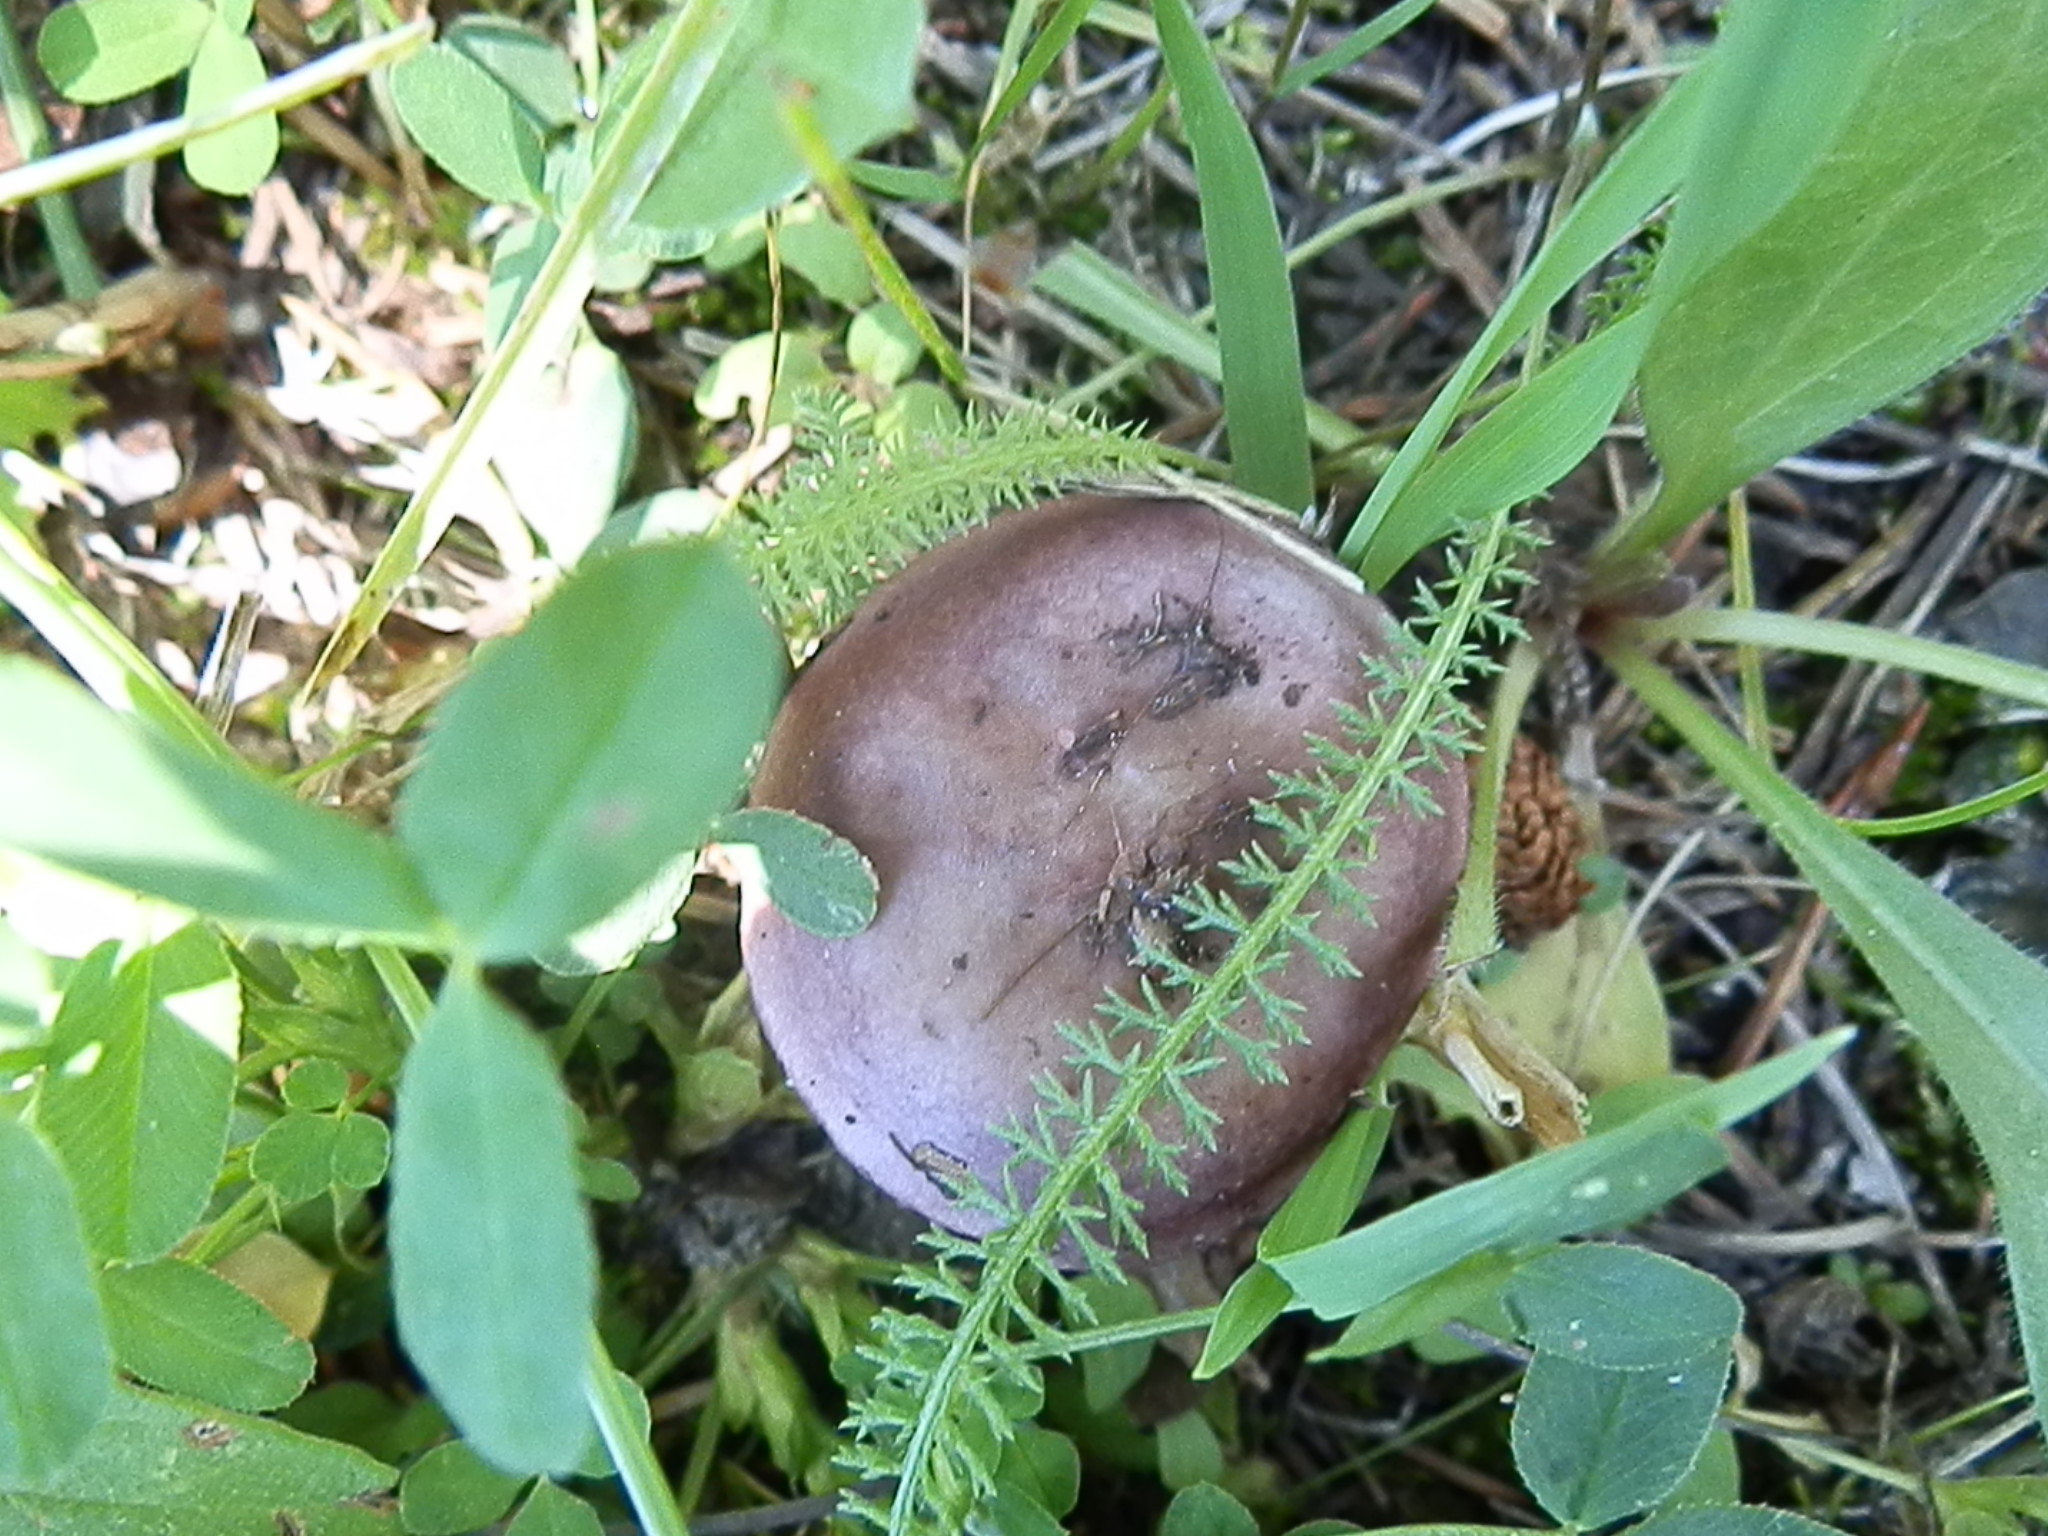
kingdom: Fungi
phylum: Basidiomycota
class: Agaricomycetes
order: Russulales
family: Russulaceae
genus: Russula
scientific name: Russula puellaris
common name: Yellowing brittlegill
